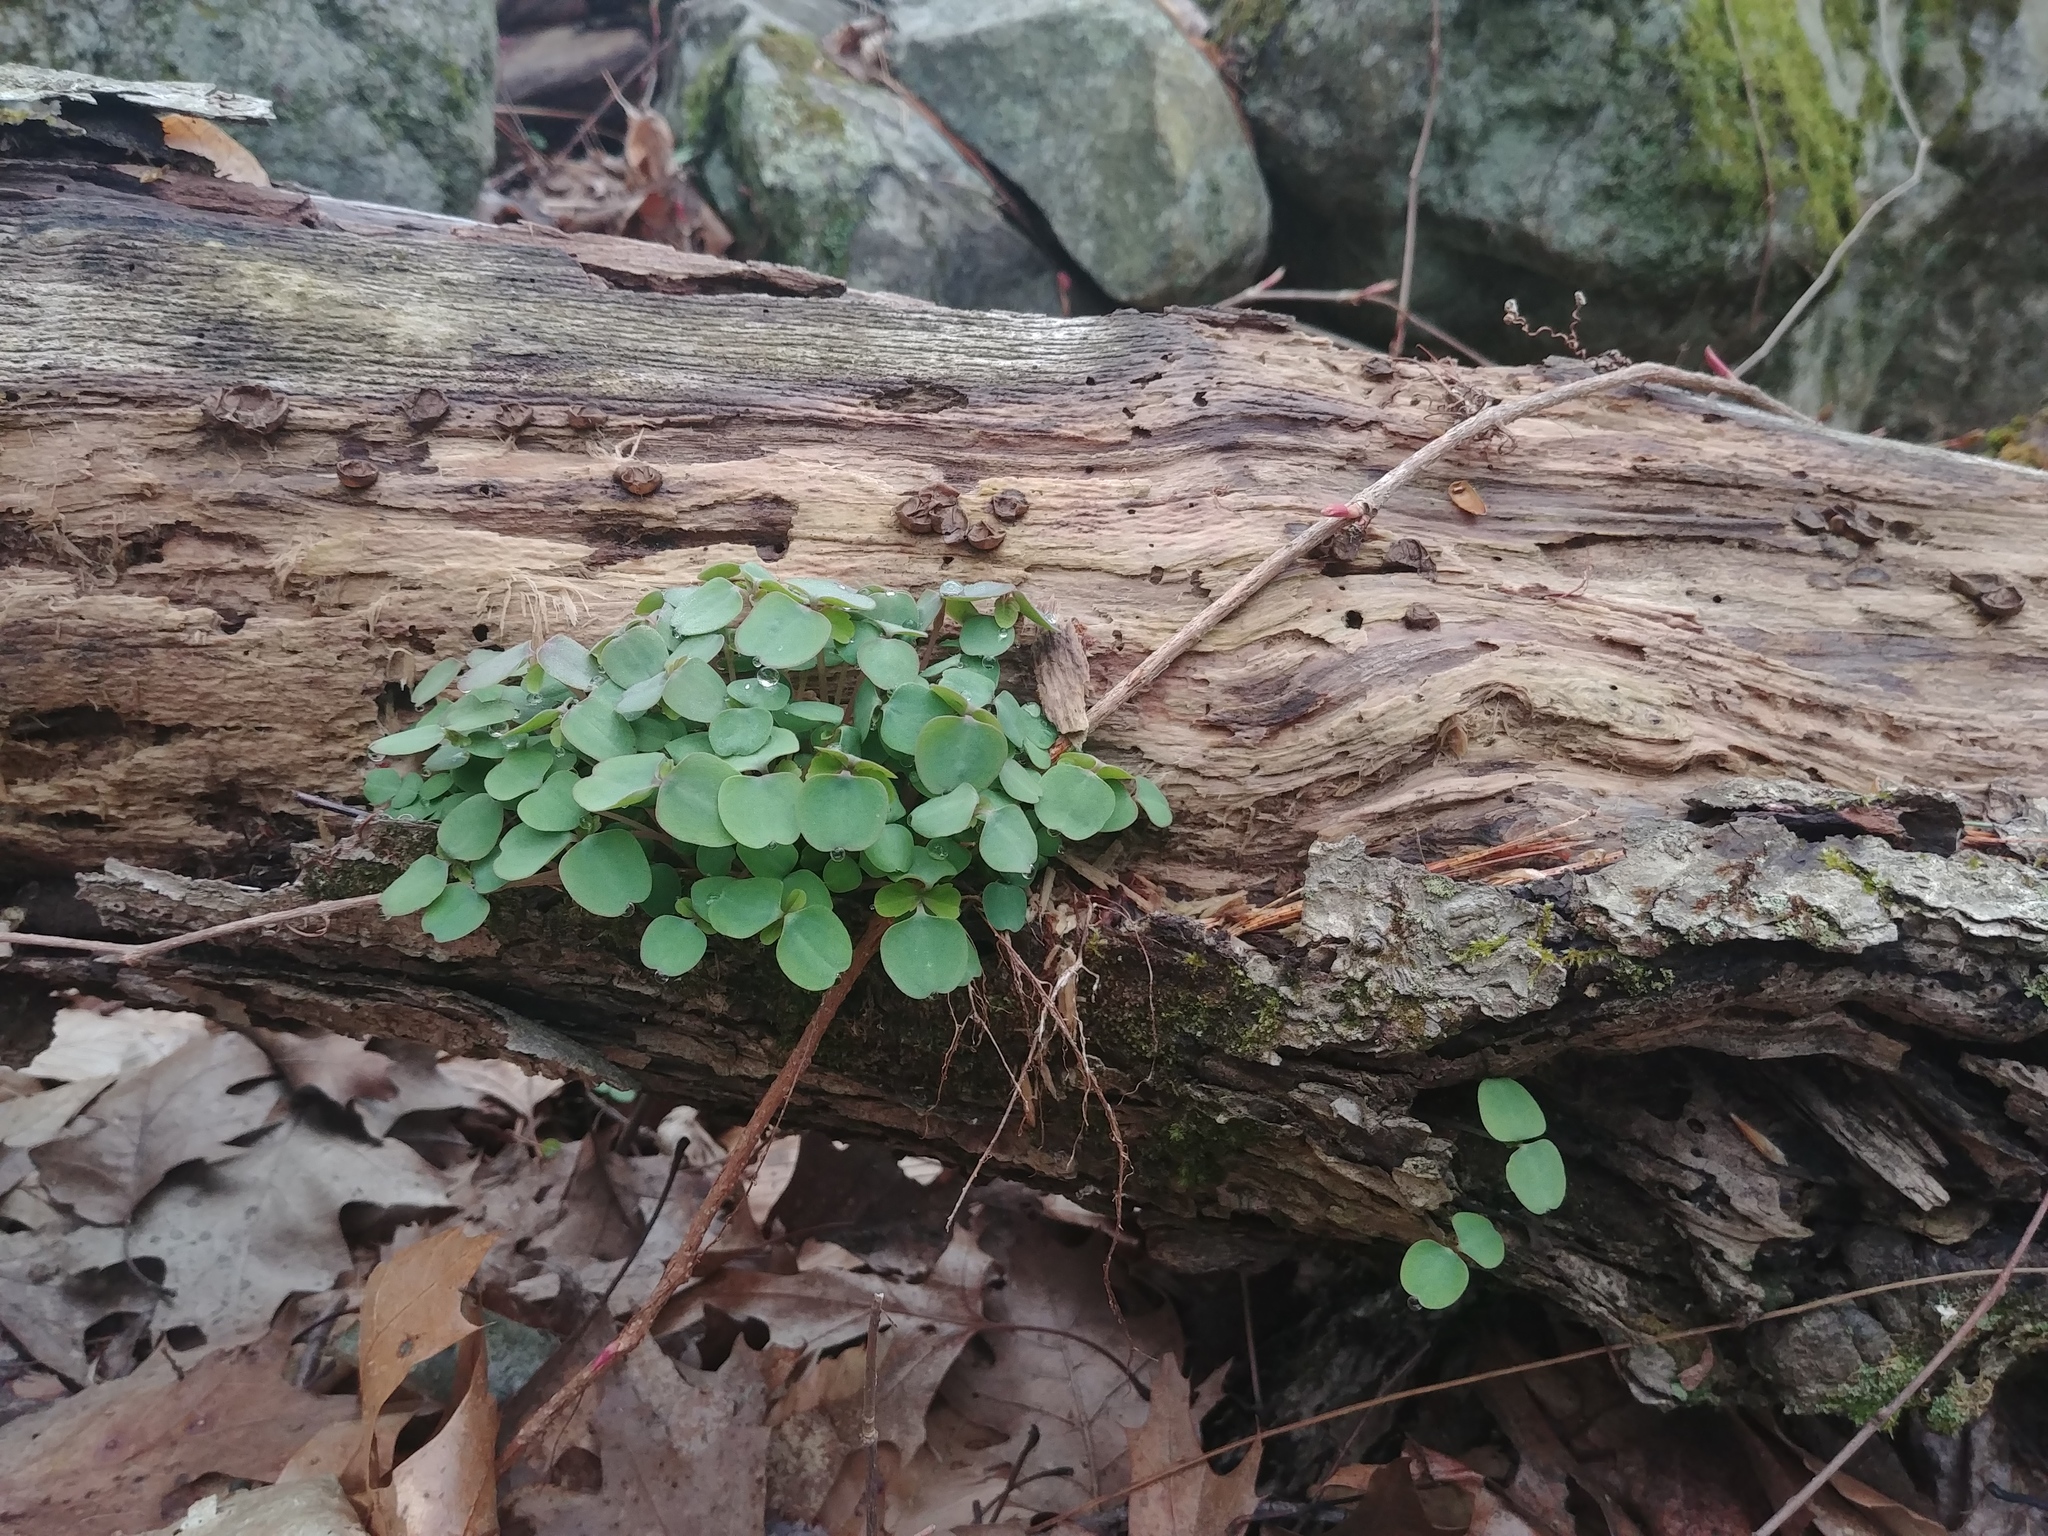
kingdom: Plantae
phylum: Tracheophyta
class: Magnoliopsida
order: Ericales
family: Balsaminaceae
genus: Impatiens
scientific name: Impatiens
